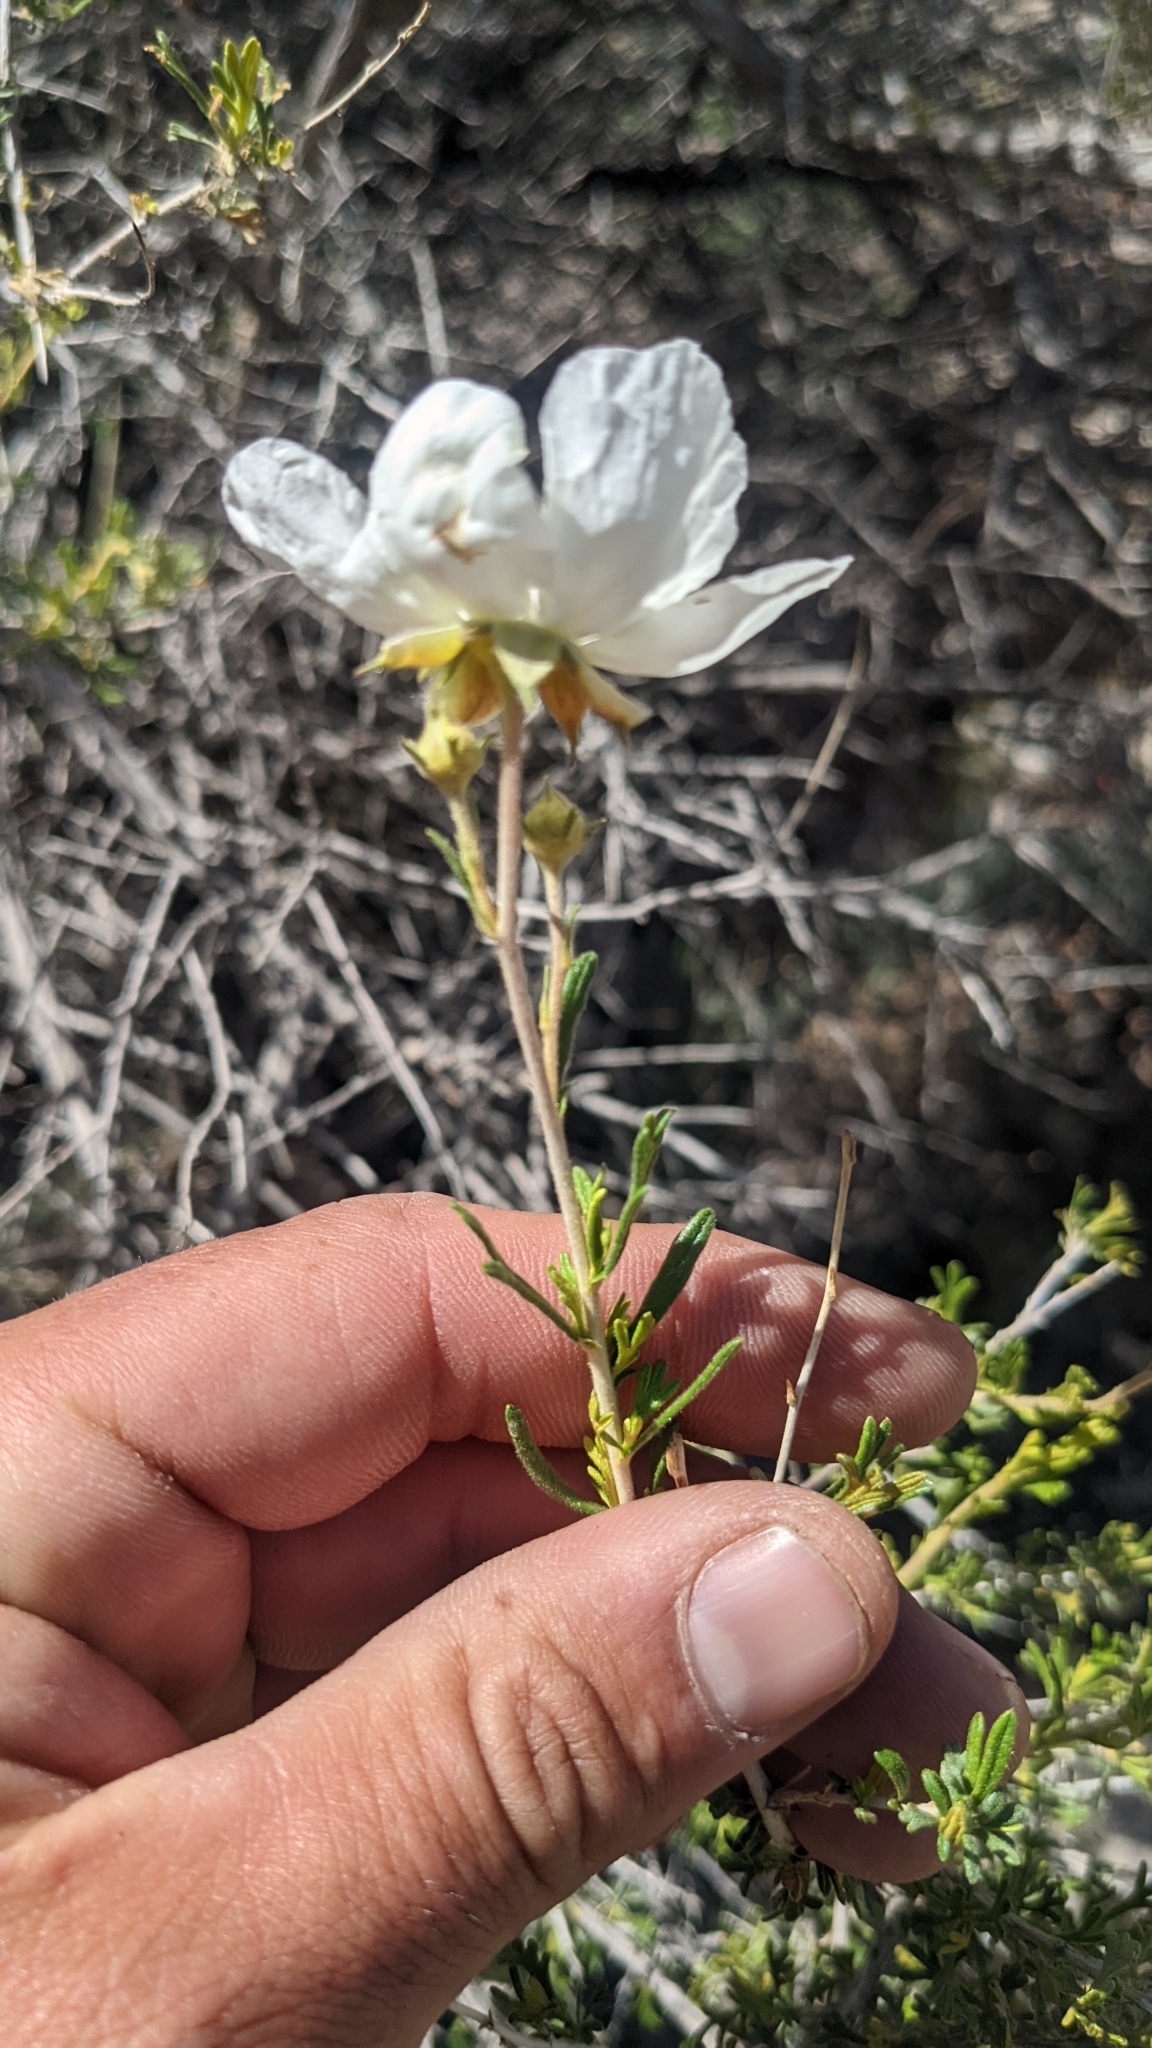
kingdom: Plantae
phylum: Tracheophyta
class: Magnoliopsida
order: Rosales
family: Rosaceae
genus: Fallugia
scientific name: Fallugia paradoxa
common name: Apache-plume
